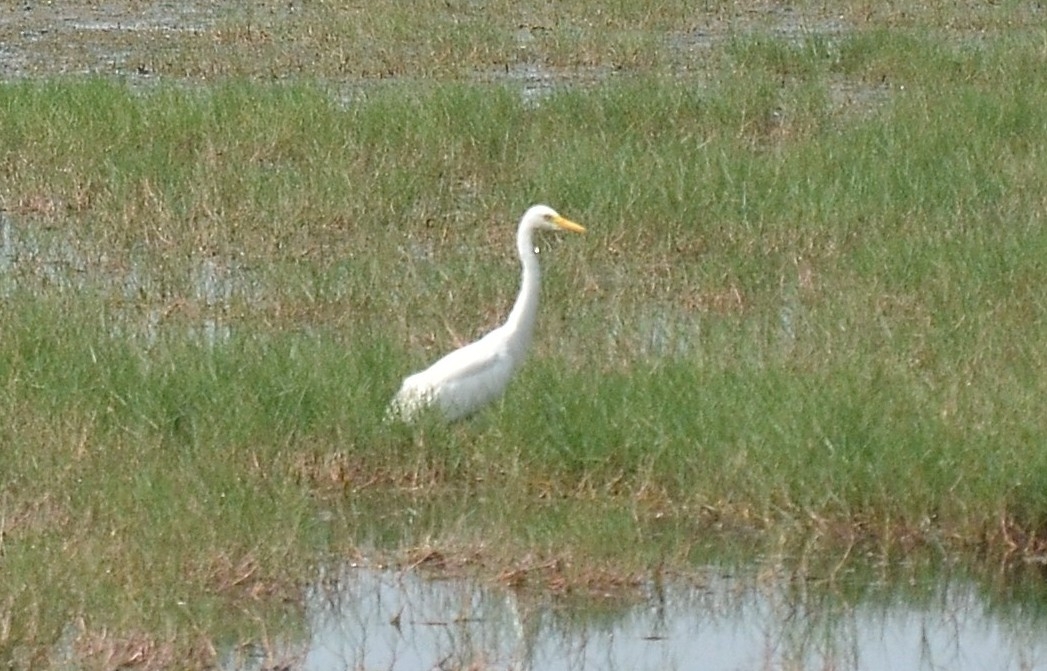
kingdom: Animalia
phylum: Chordata
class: Aves
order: Pelecaniformes
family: Ardeidae
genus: Egretta
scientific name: Egretta intermedia
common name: Intermediate egret
